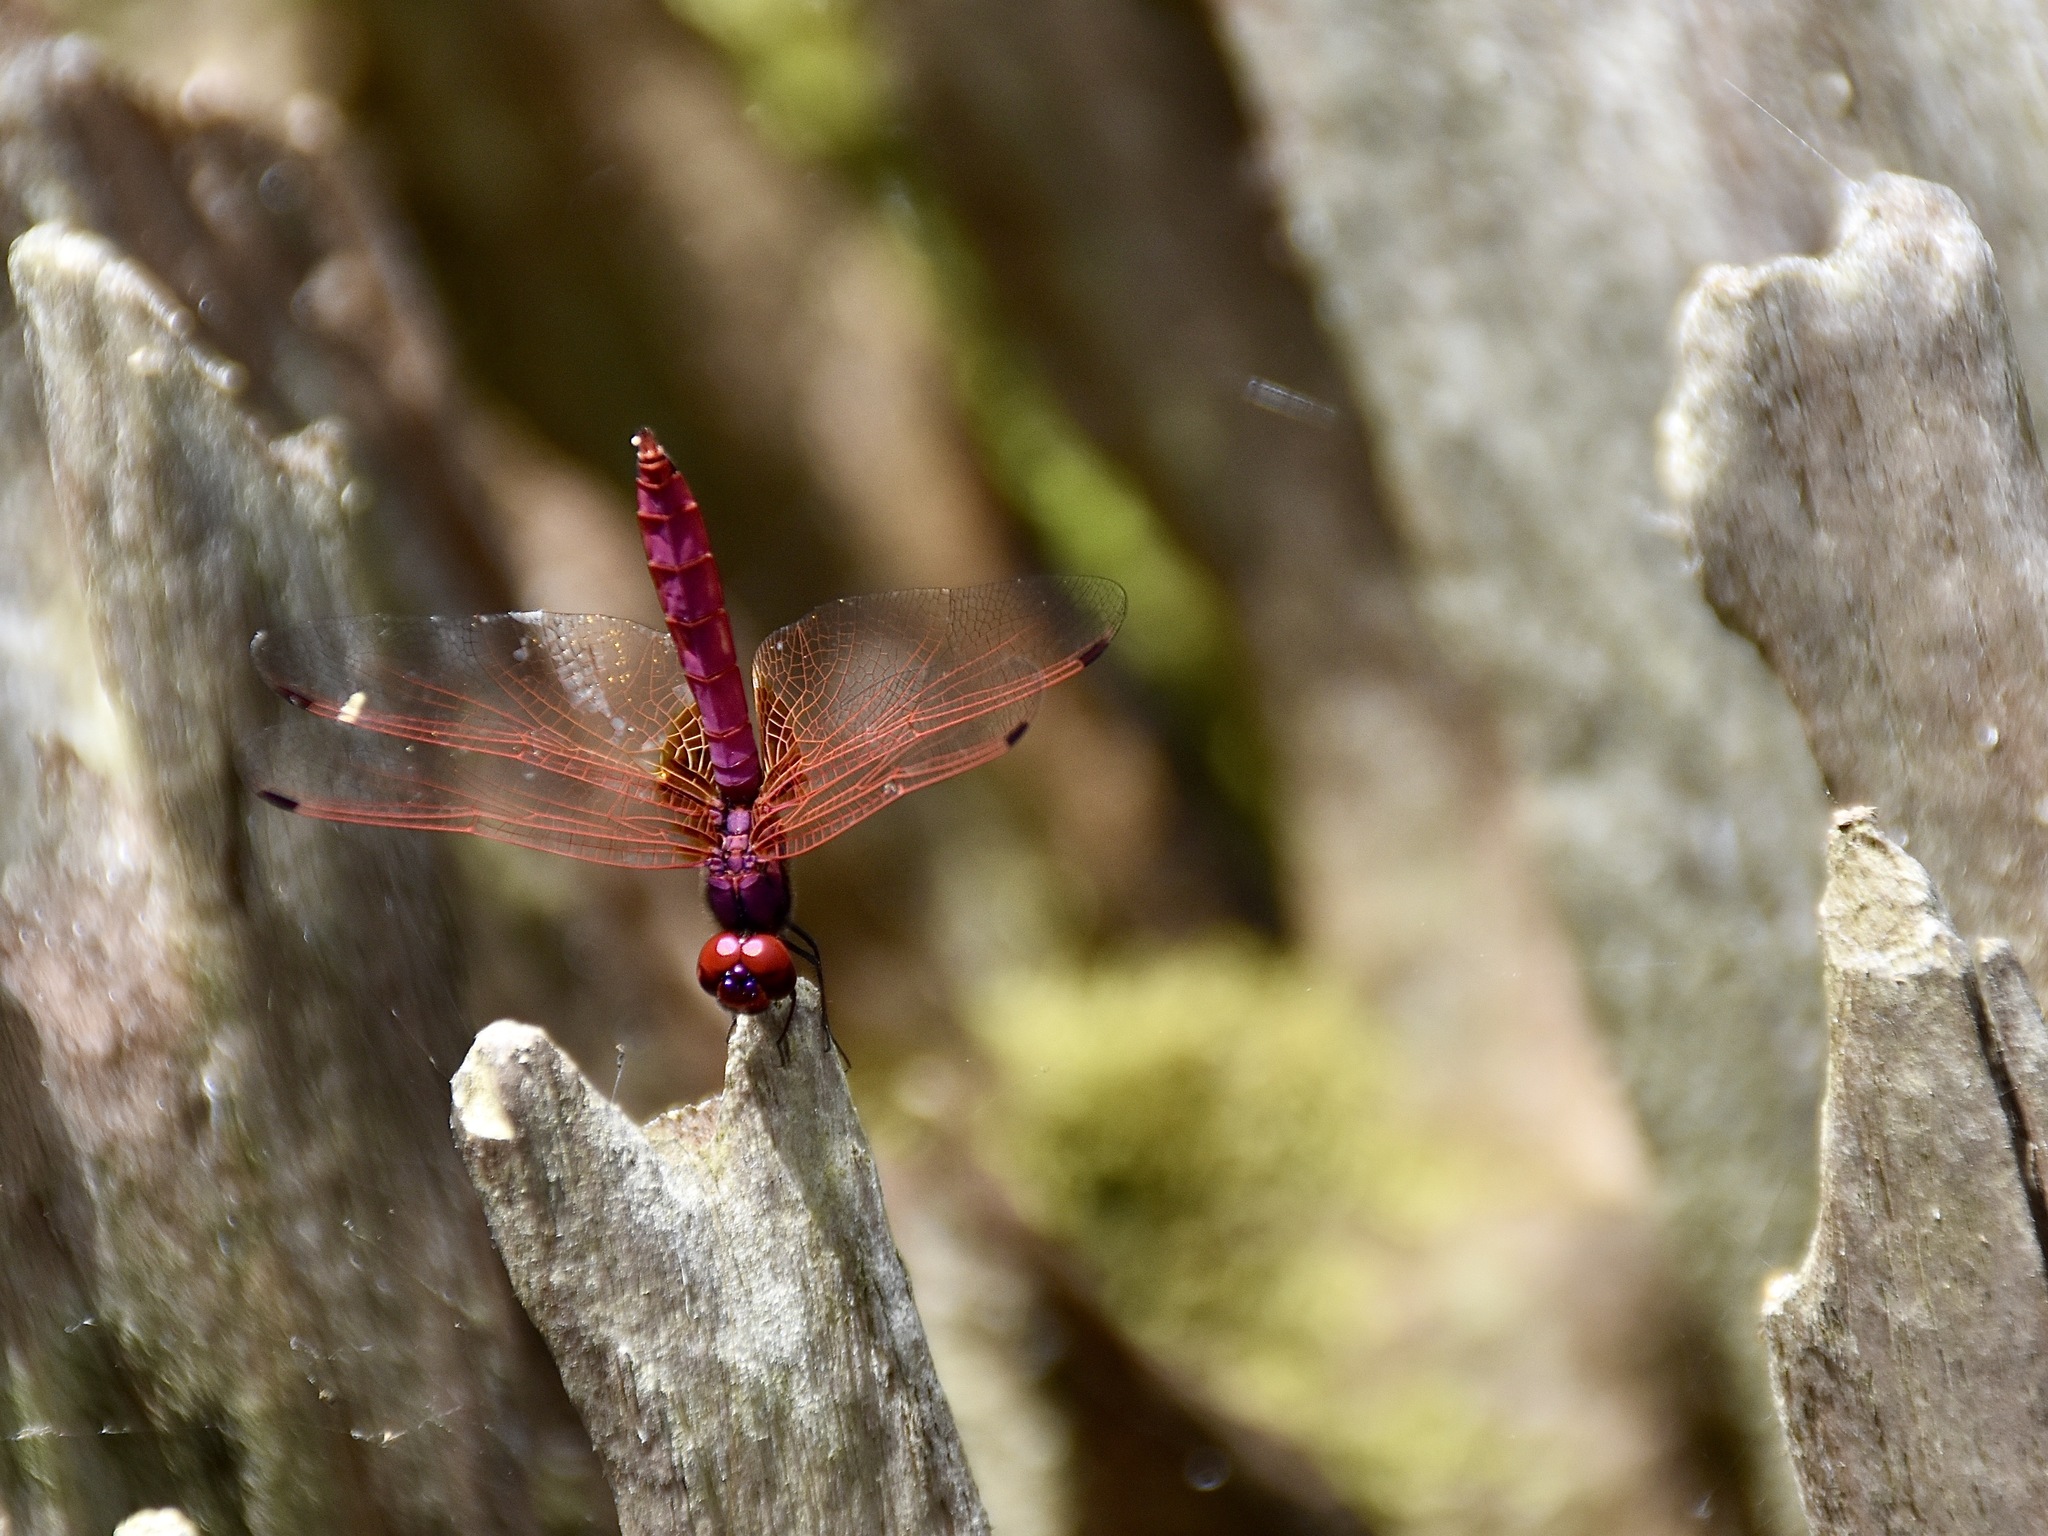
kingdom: Animalia
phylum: Arthropoda
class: Insecta
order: Odonata
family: Libellulidae
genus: Trithemis
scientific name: Trithemis aurora
